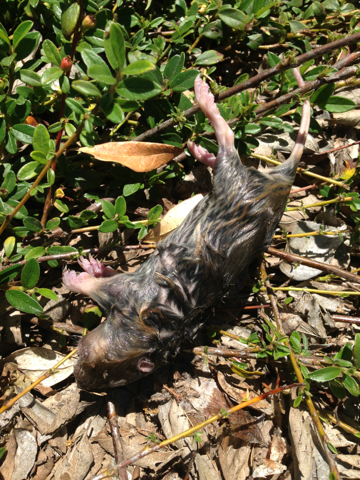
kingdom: Animalia
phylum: Chordata
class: Mammalia
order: Rodentia
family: Geomyidae
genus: Thomomys
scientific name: Thomomys bottae
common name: Botta's pocket gopher
